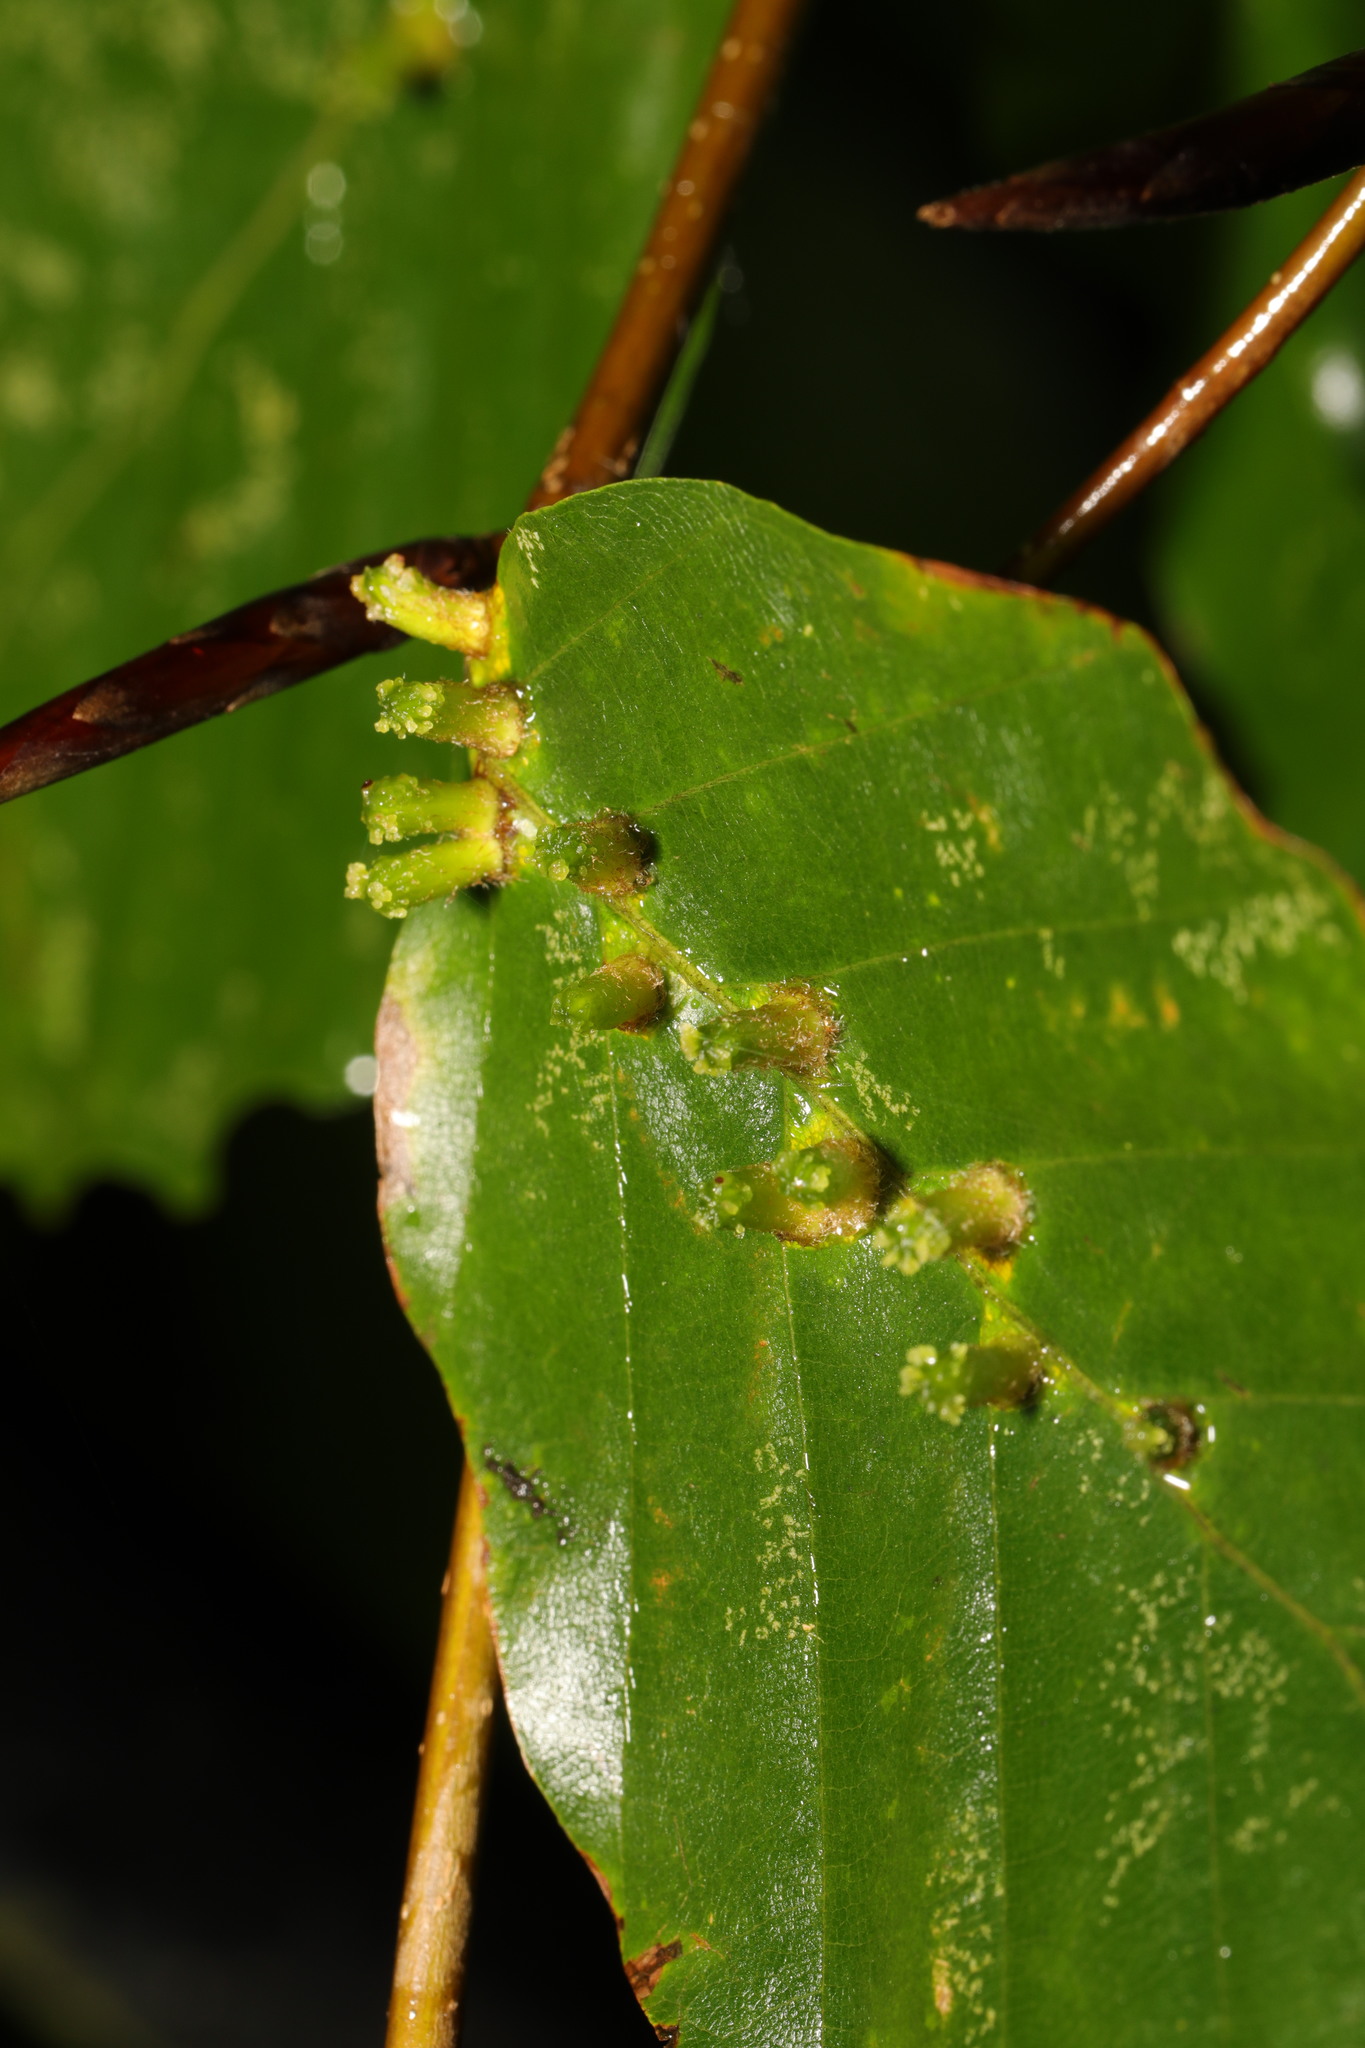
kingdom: Animalia
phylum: Arthropoda
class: Insecta
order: Diptera
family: Cecidomyiidae
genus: Hartigiola
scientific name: Hartigiola annulipes
